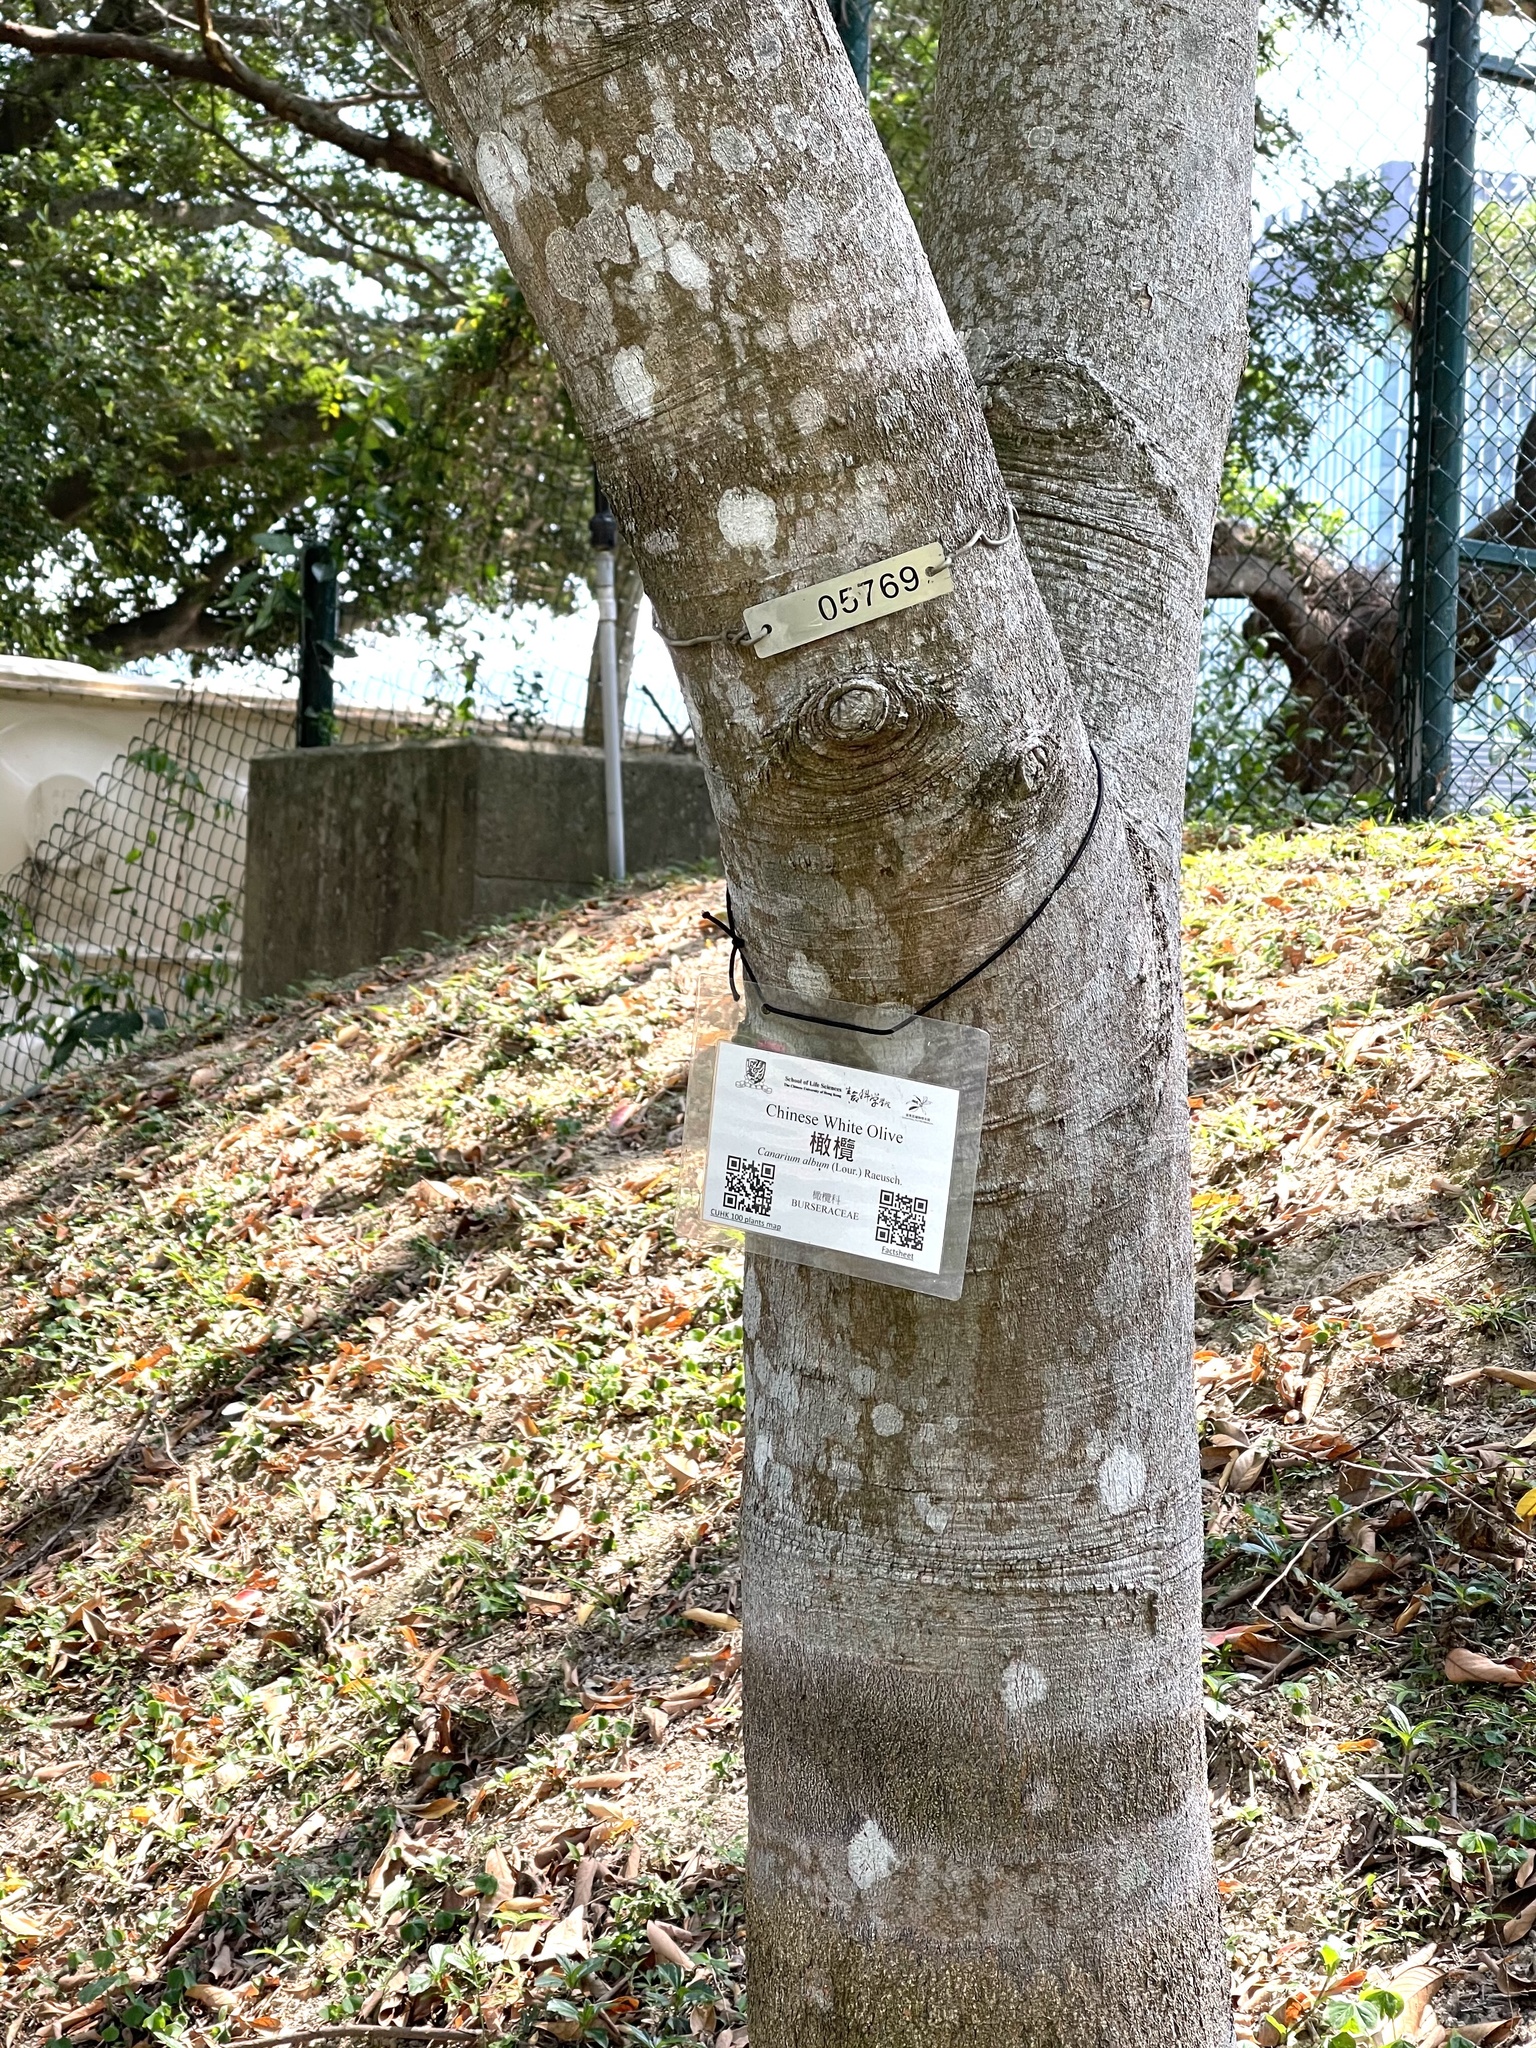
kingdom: Plantae
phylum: Tracheophyta
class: Magnoliopsida
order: Sapindales
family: Burseraceae
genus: Canarium
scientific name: Canarium subulatum
